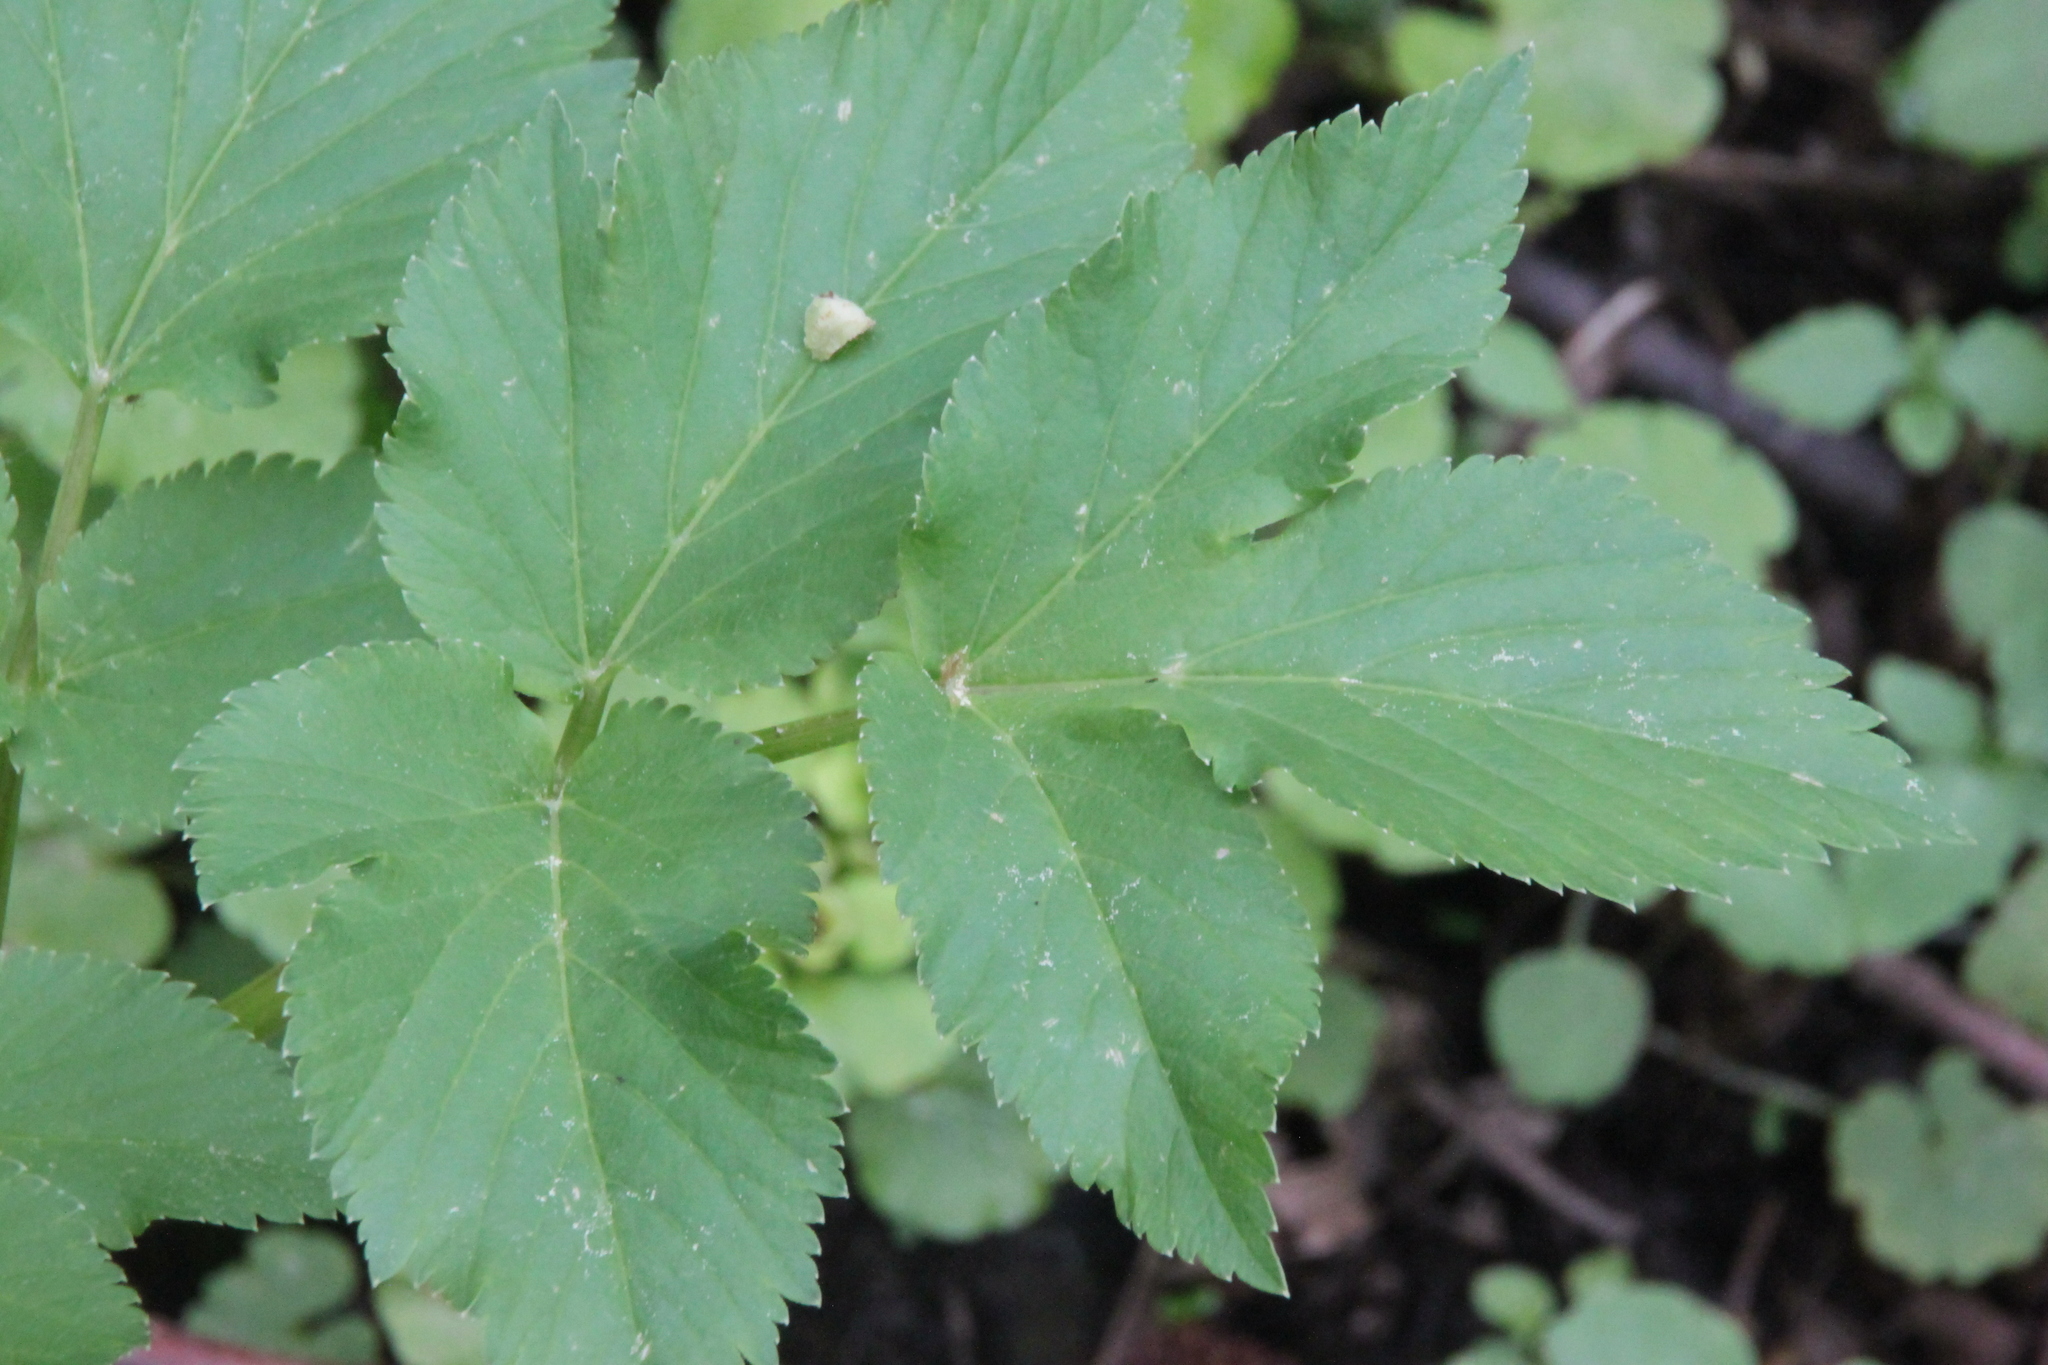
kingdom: Plantae
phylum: Tracheophyta
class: Magnoliopsida
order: Apiales
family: Apiaceae
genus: Aegopodium
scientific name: Aegopodium podagraria
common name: Ground-elder
